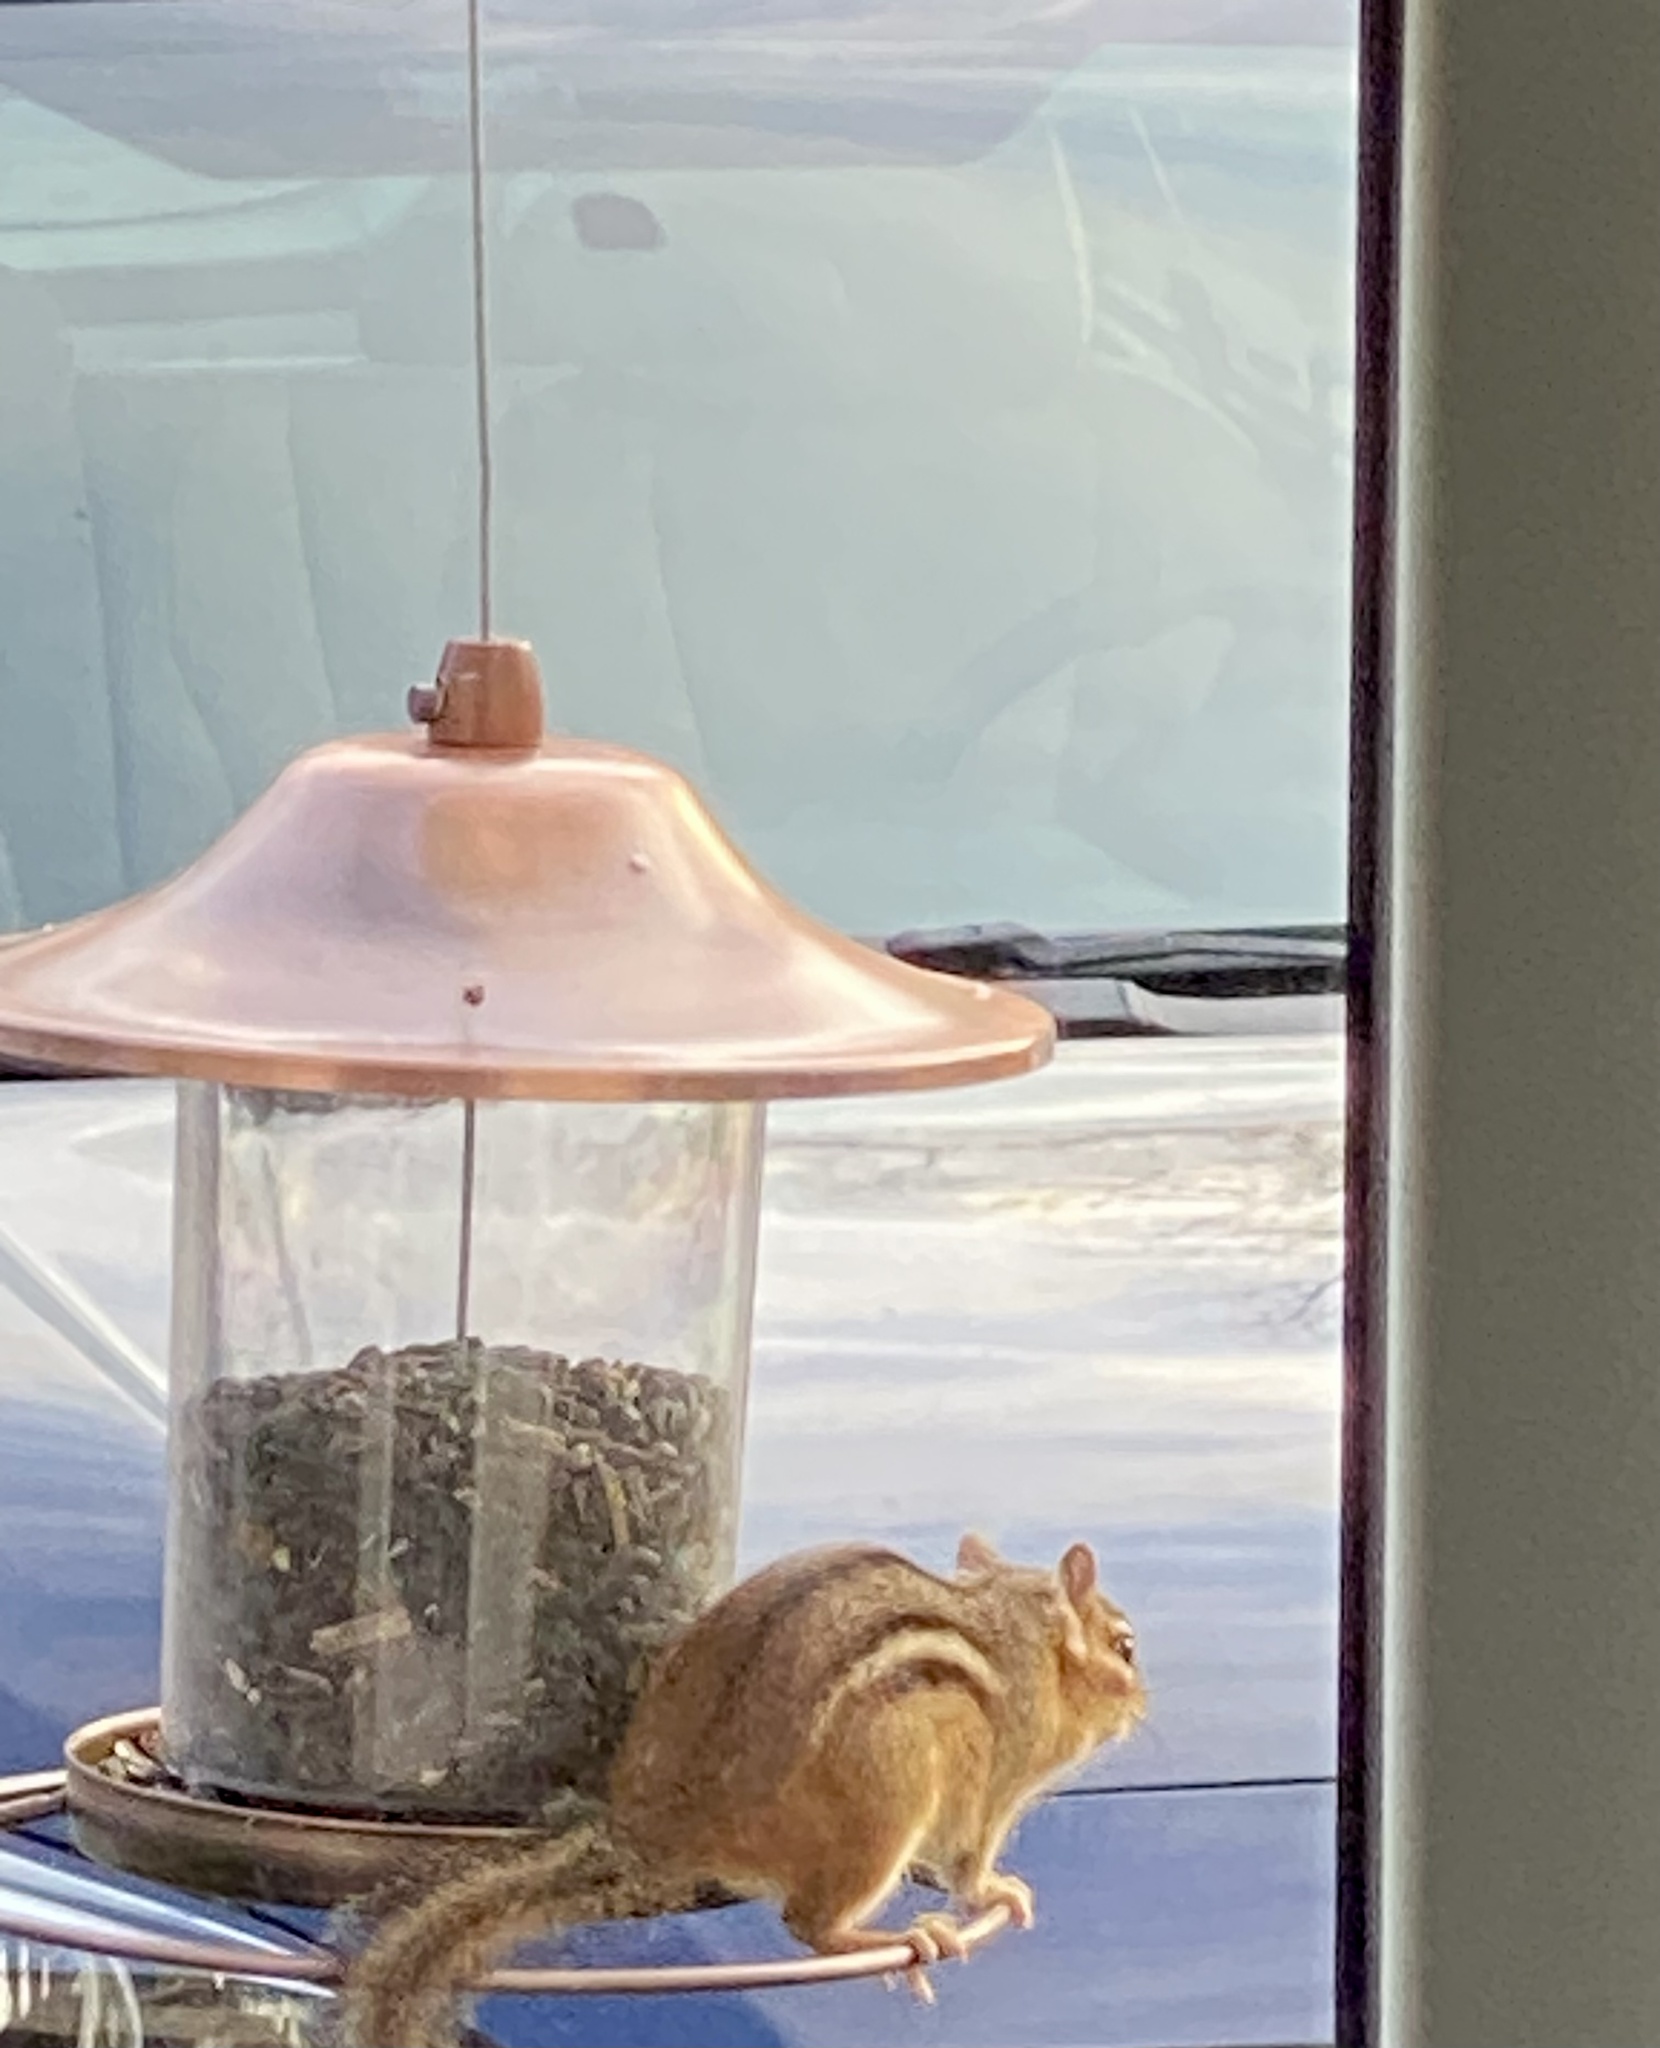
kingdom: Animalia
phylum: Chordata
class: Mammalia
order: Rodentia
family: Sciuridae
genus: Tamias
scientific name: Tamias striatus
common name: Eastern chipmunk
